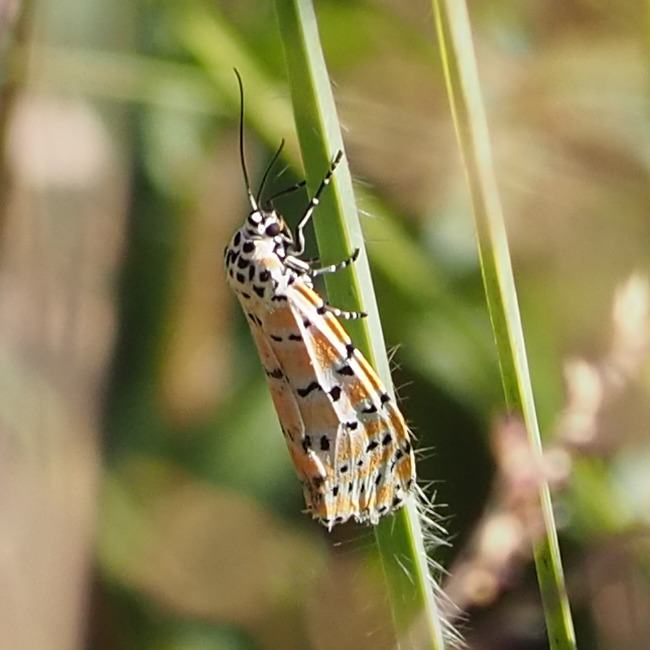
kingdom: Animalia
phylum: Arthropoda
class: Insecta
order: Lepidoptera
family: Erebidae
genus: Utetheisa
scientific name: Utetheisa ornatrix
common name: Beautiful utetheisa
